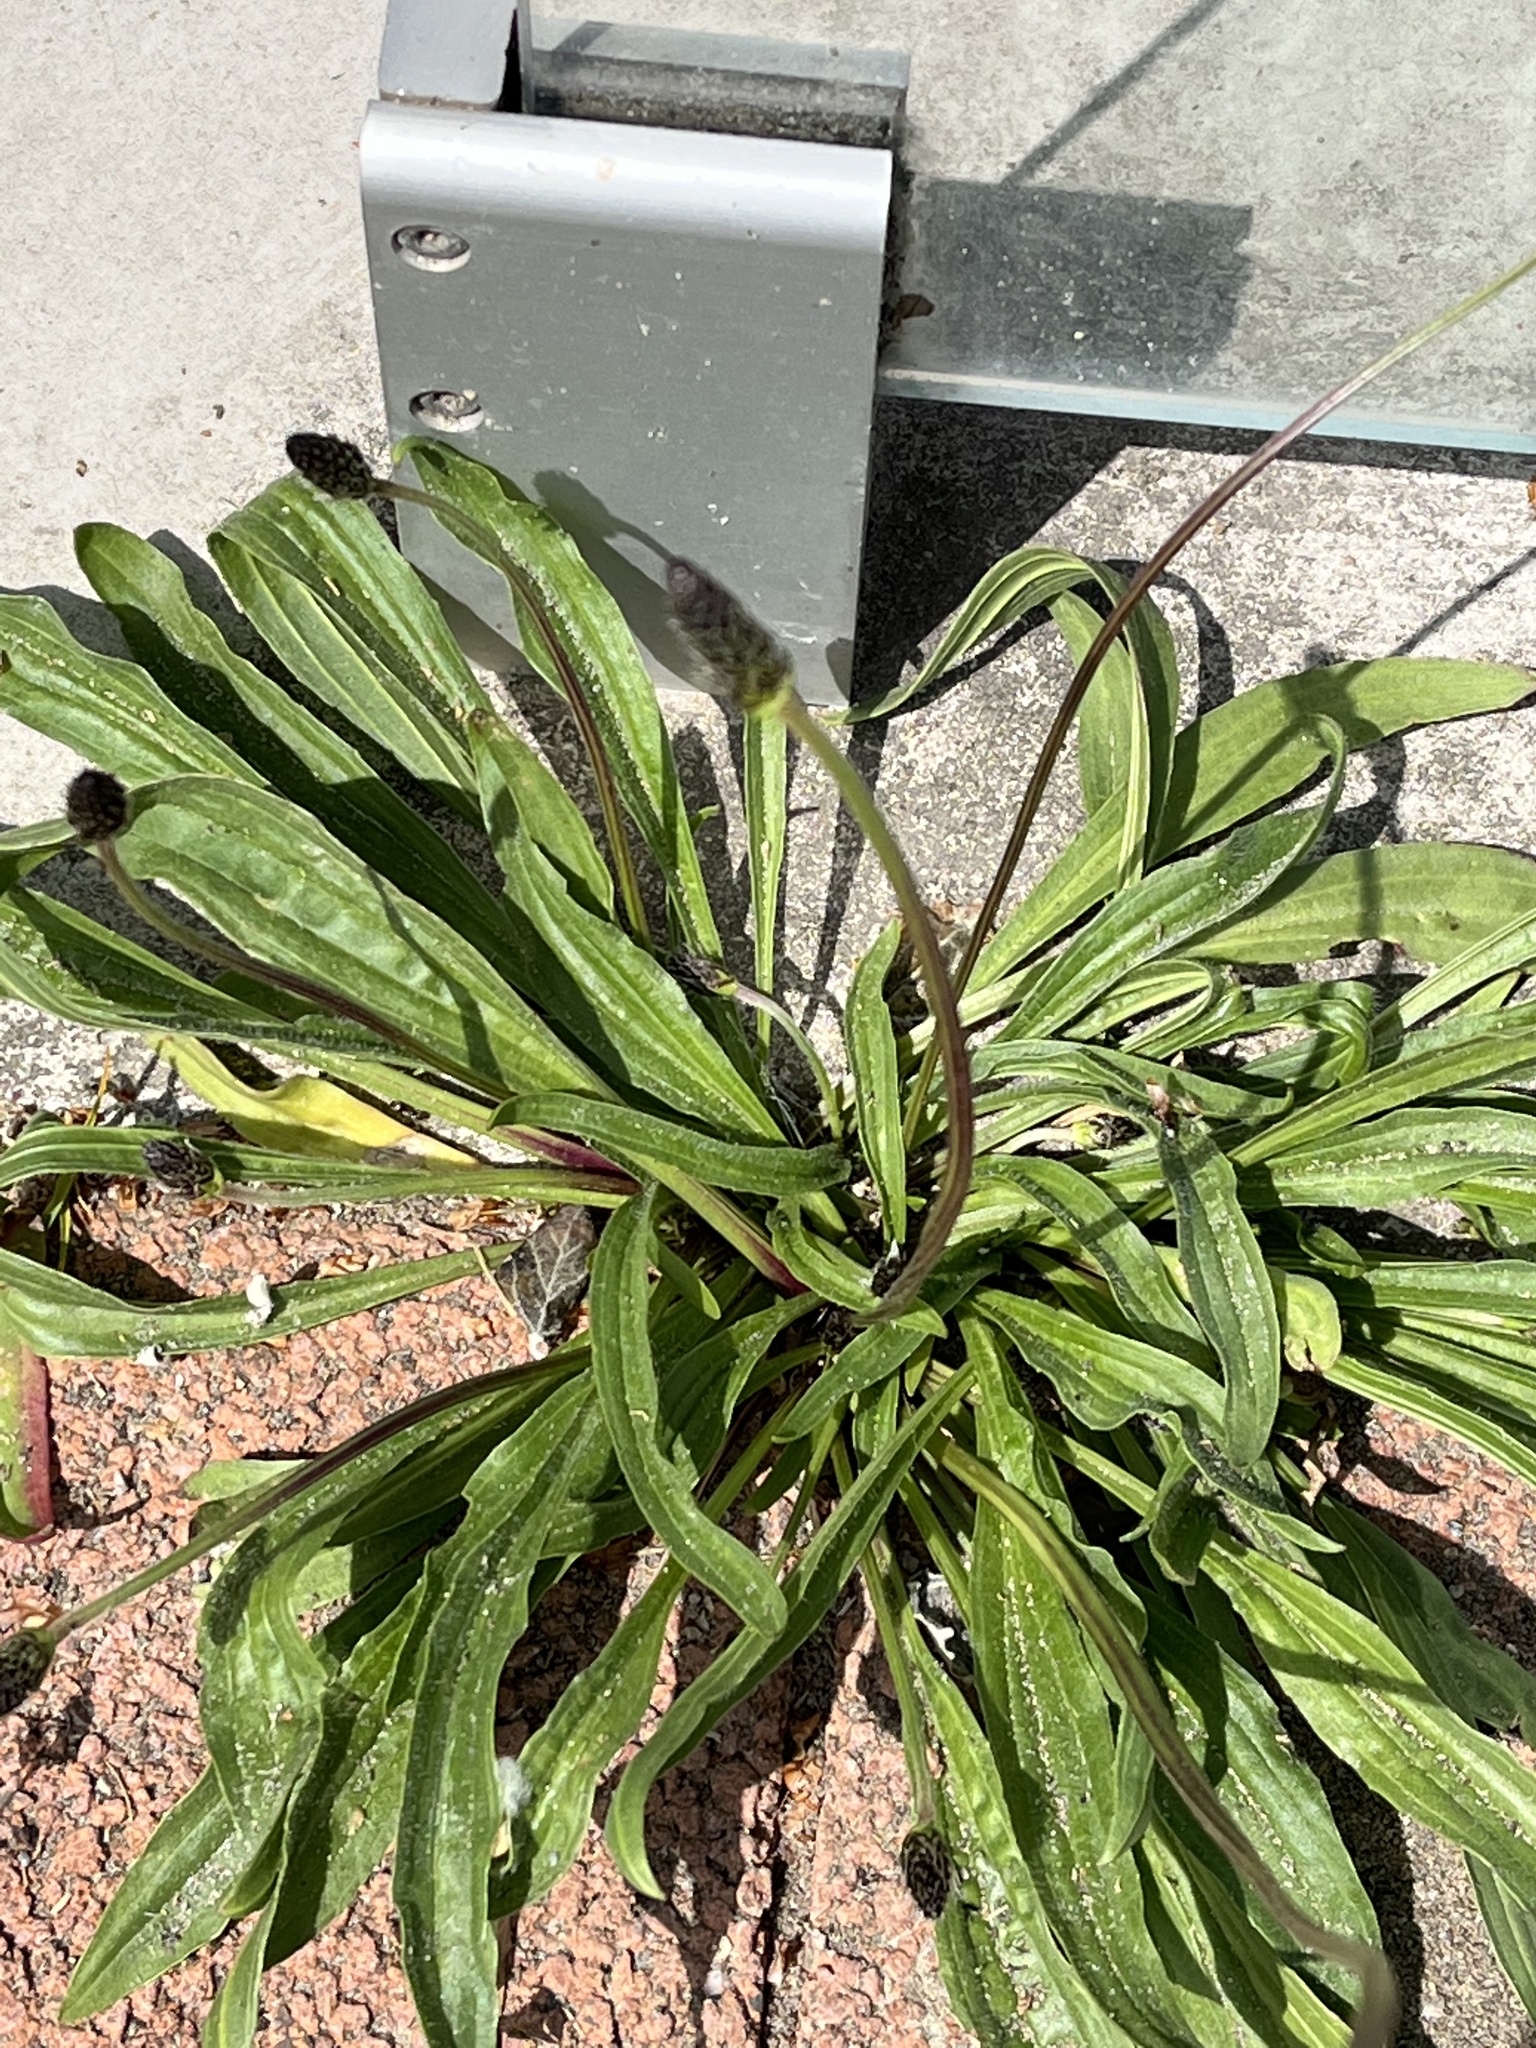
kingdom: Plantae
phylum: Tracheophyta
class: Magnoliopsida
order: Lamiales
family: Plantaginaceae
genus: Plantago
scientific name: Plantago lanceolata
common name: Ribwort plantain
